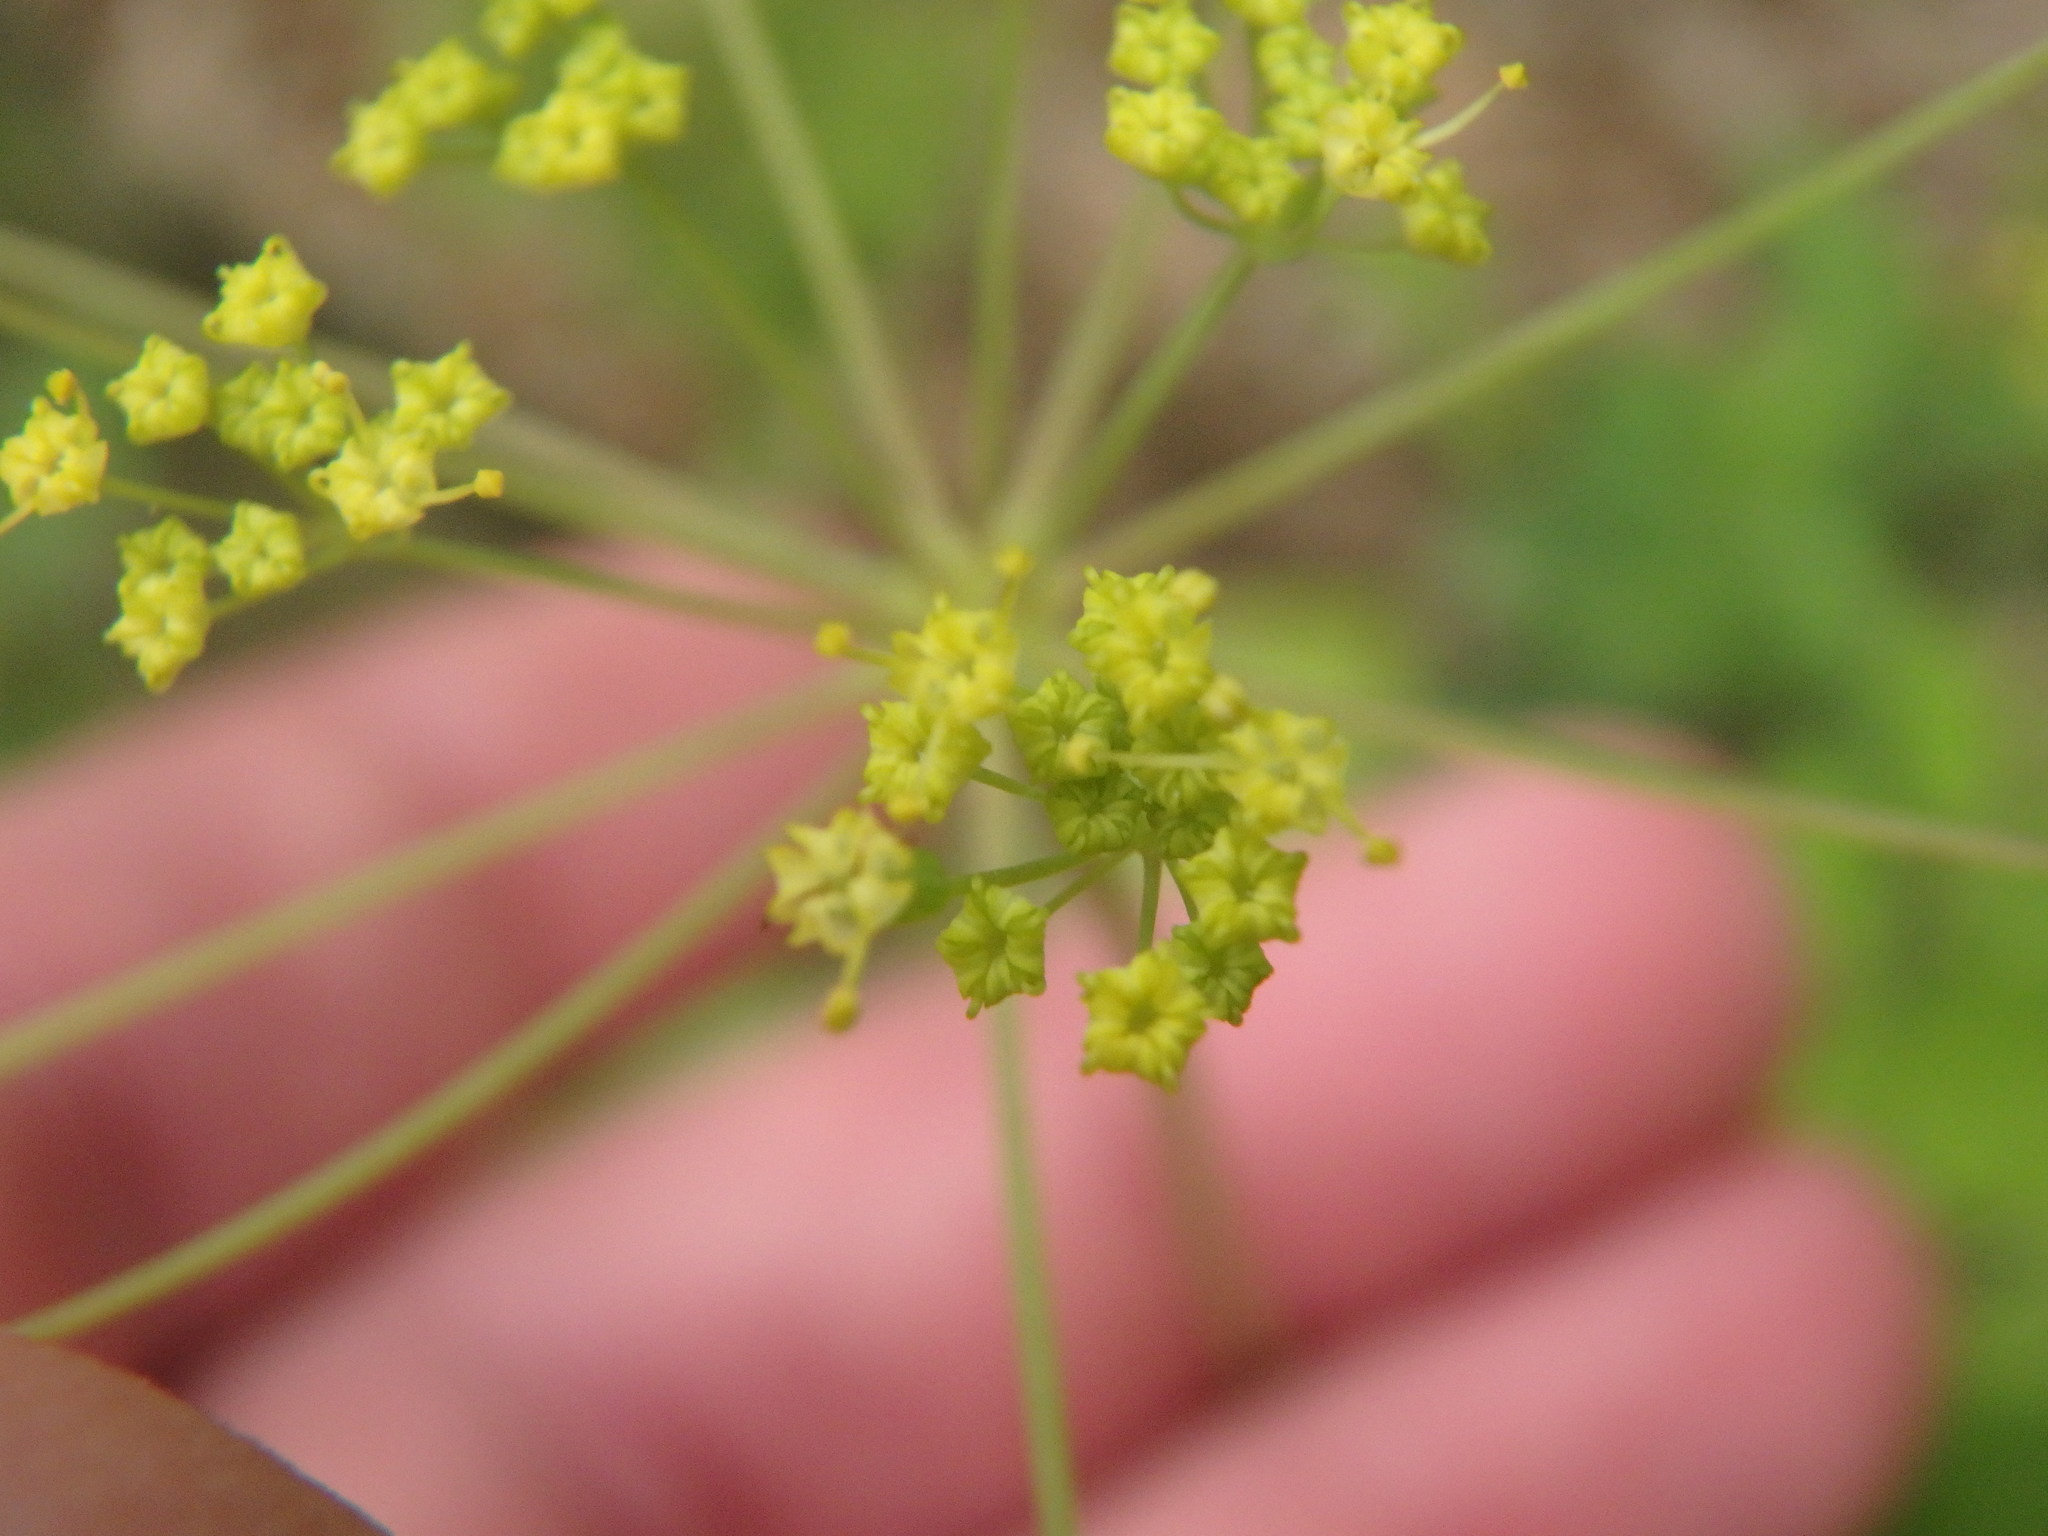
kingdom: Plantae
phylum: Tracheophyta
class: Magnoliopsida
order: Apiales
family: Apiaceae
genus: Taenidia
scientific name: Taenidia integerrima
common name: Golden alexander
